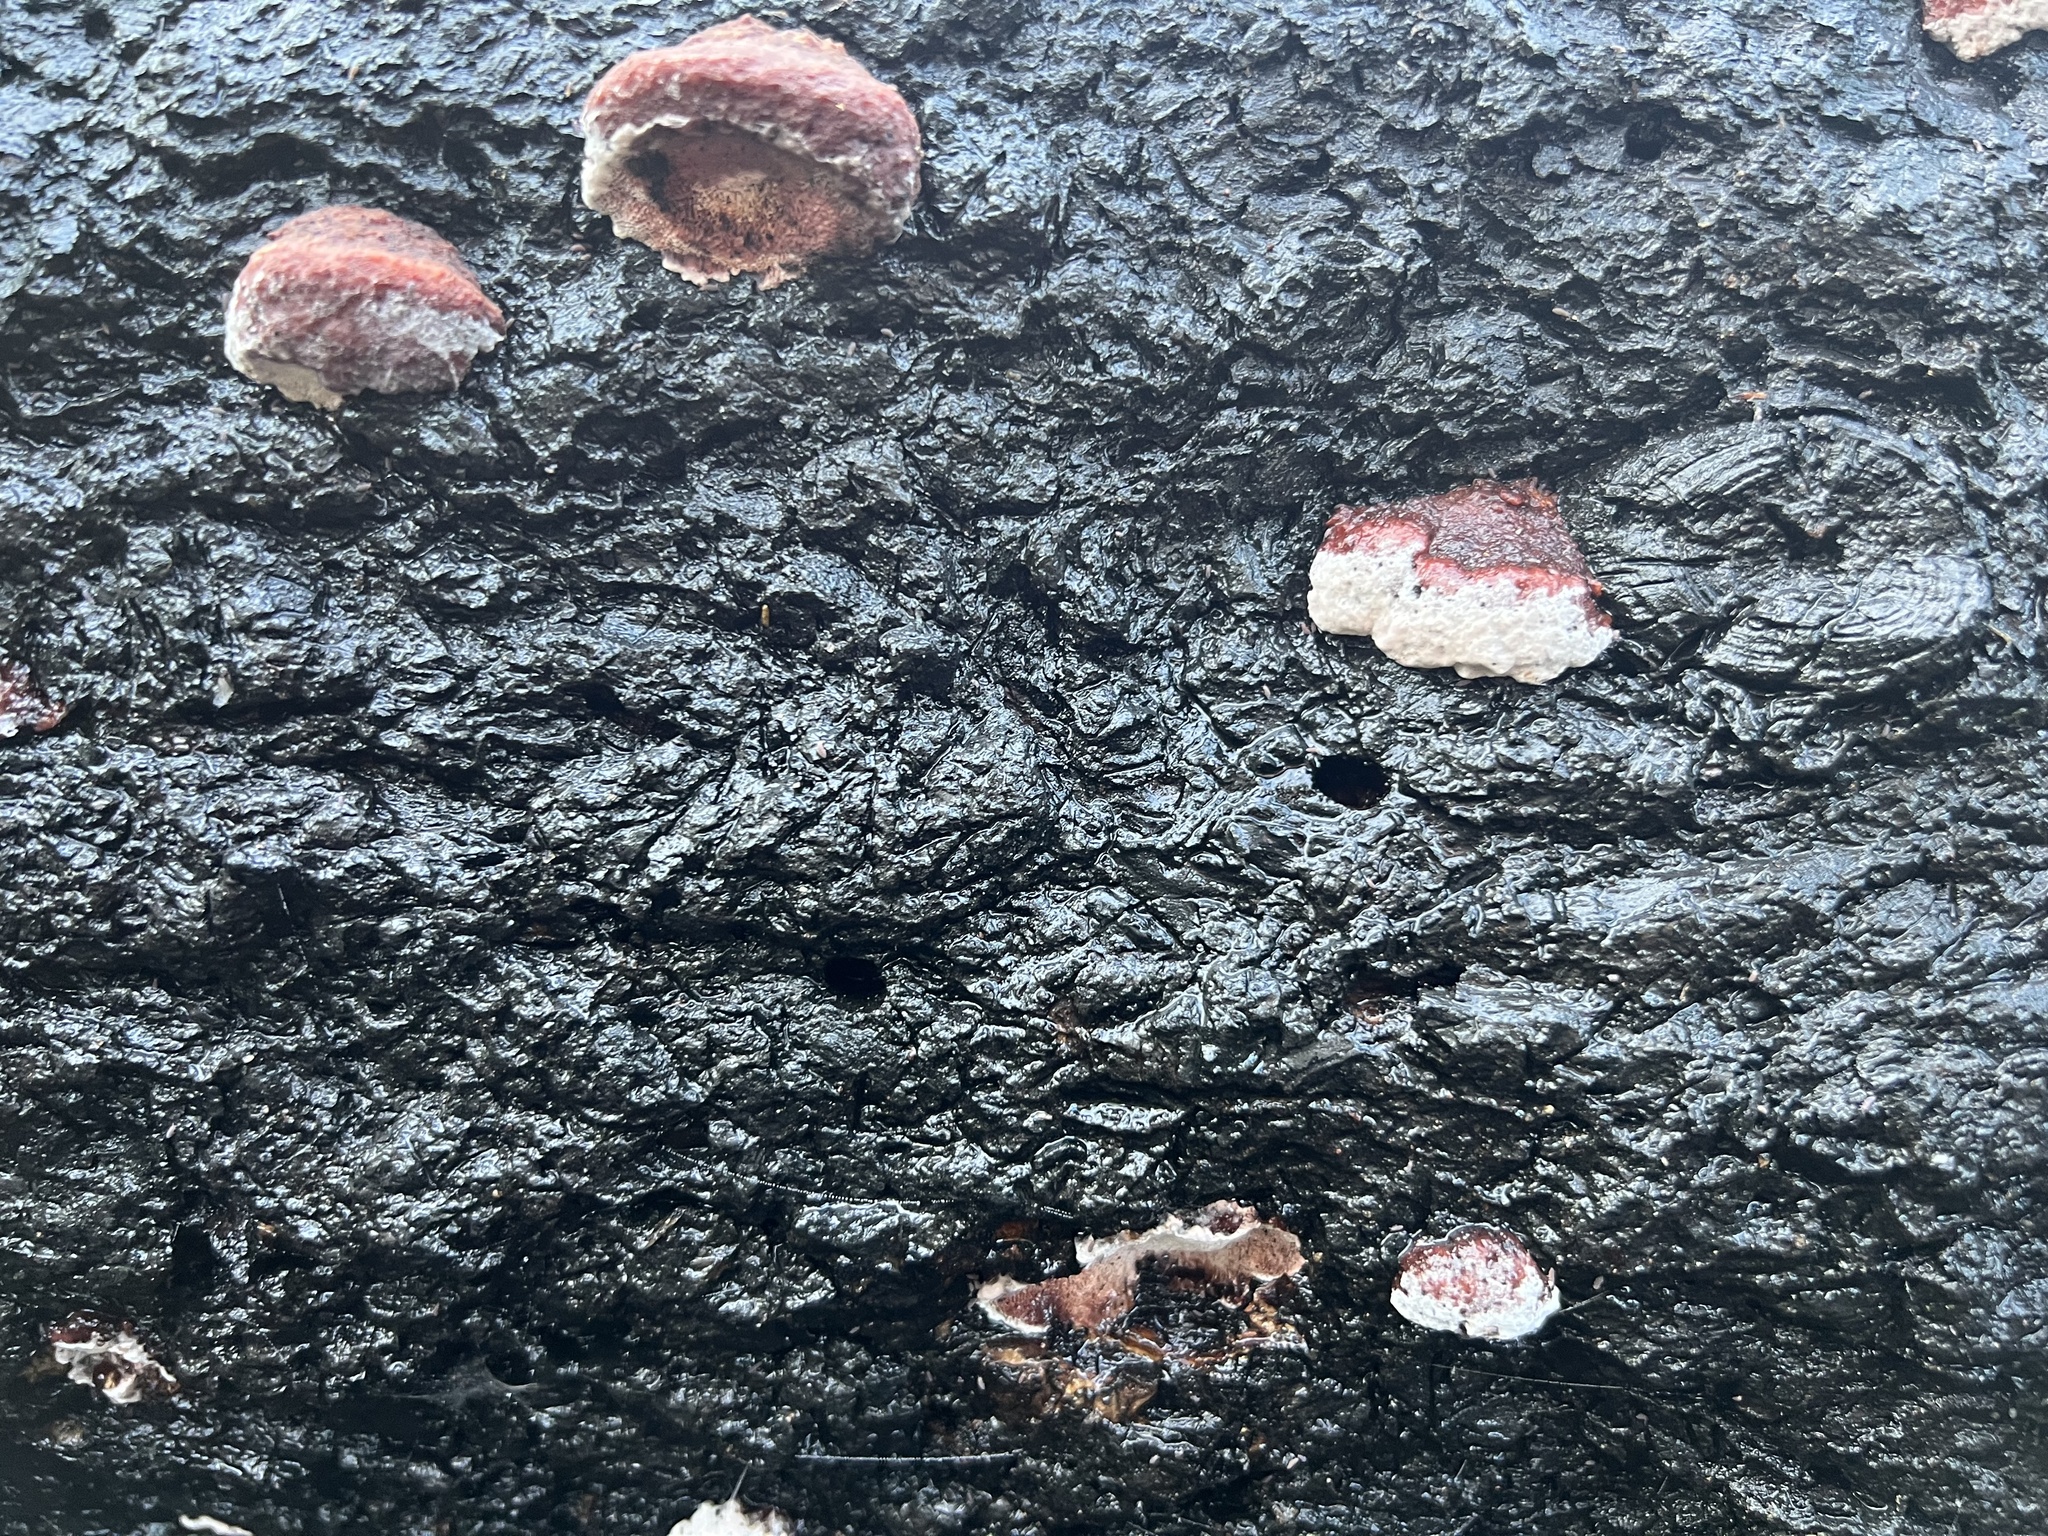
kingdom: Fungi
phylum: Basidiomycota
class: Agaricomycetes
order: Polyporales
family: Fomitopsidaceae
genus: Rhodofomes
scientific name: Rhodofomes cajanderi
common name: Rosy conk
